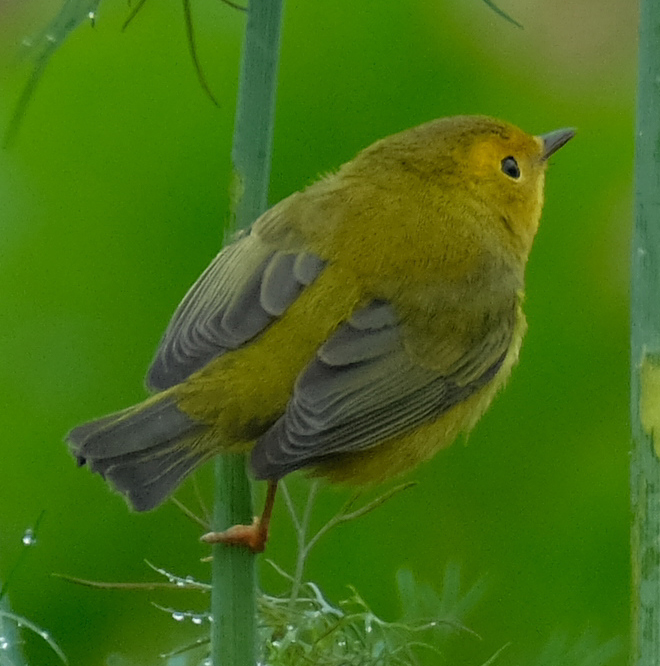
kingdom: Animalia
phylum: Chordata
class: Aves
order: Passeriformes
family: Parulidae
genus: Cardellina
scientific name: Cardellina pusilla
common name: Wilson's warbler
